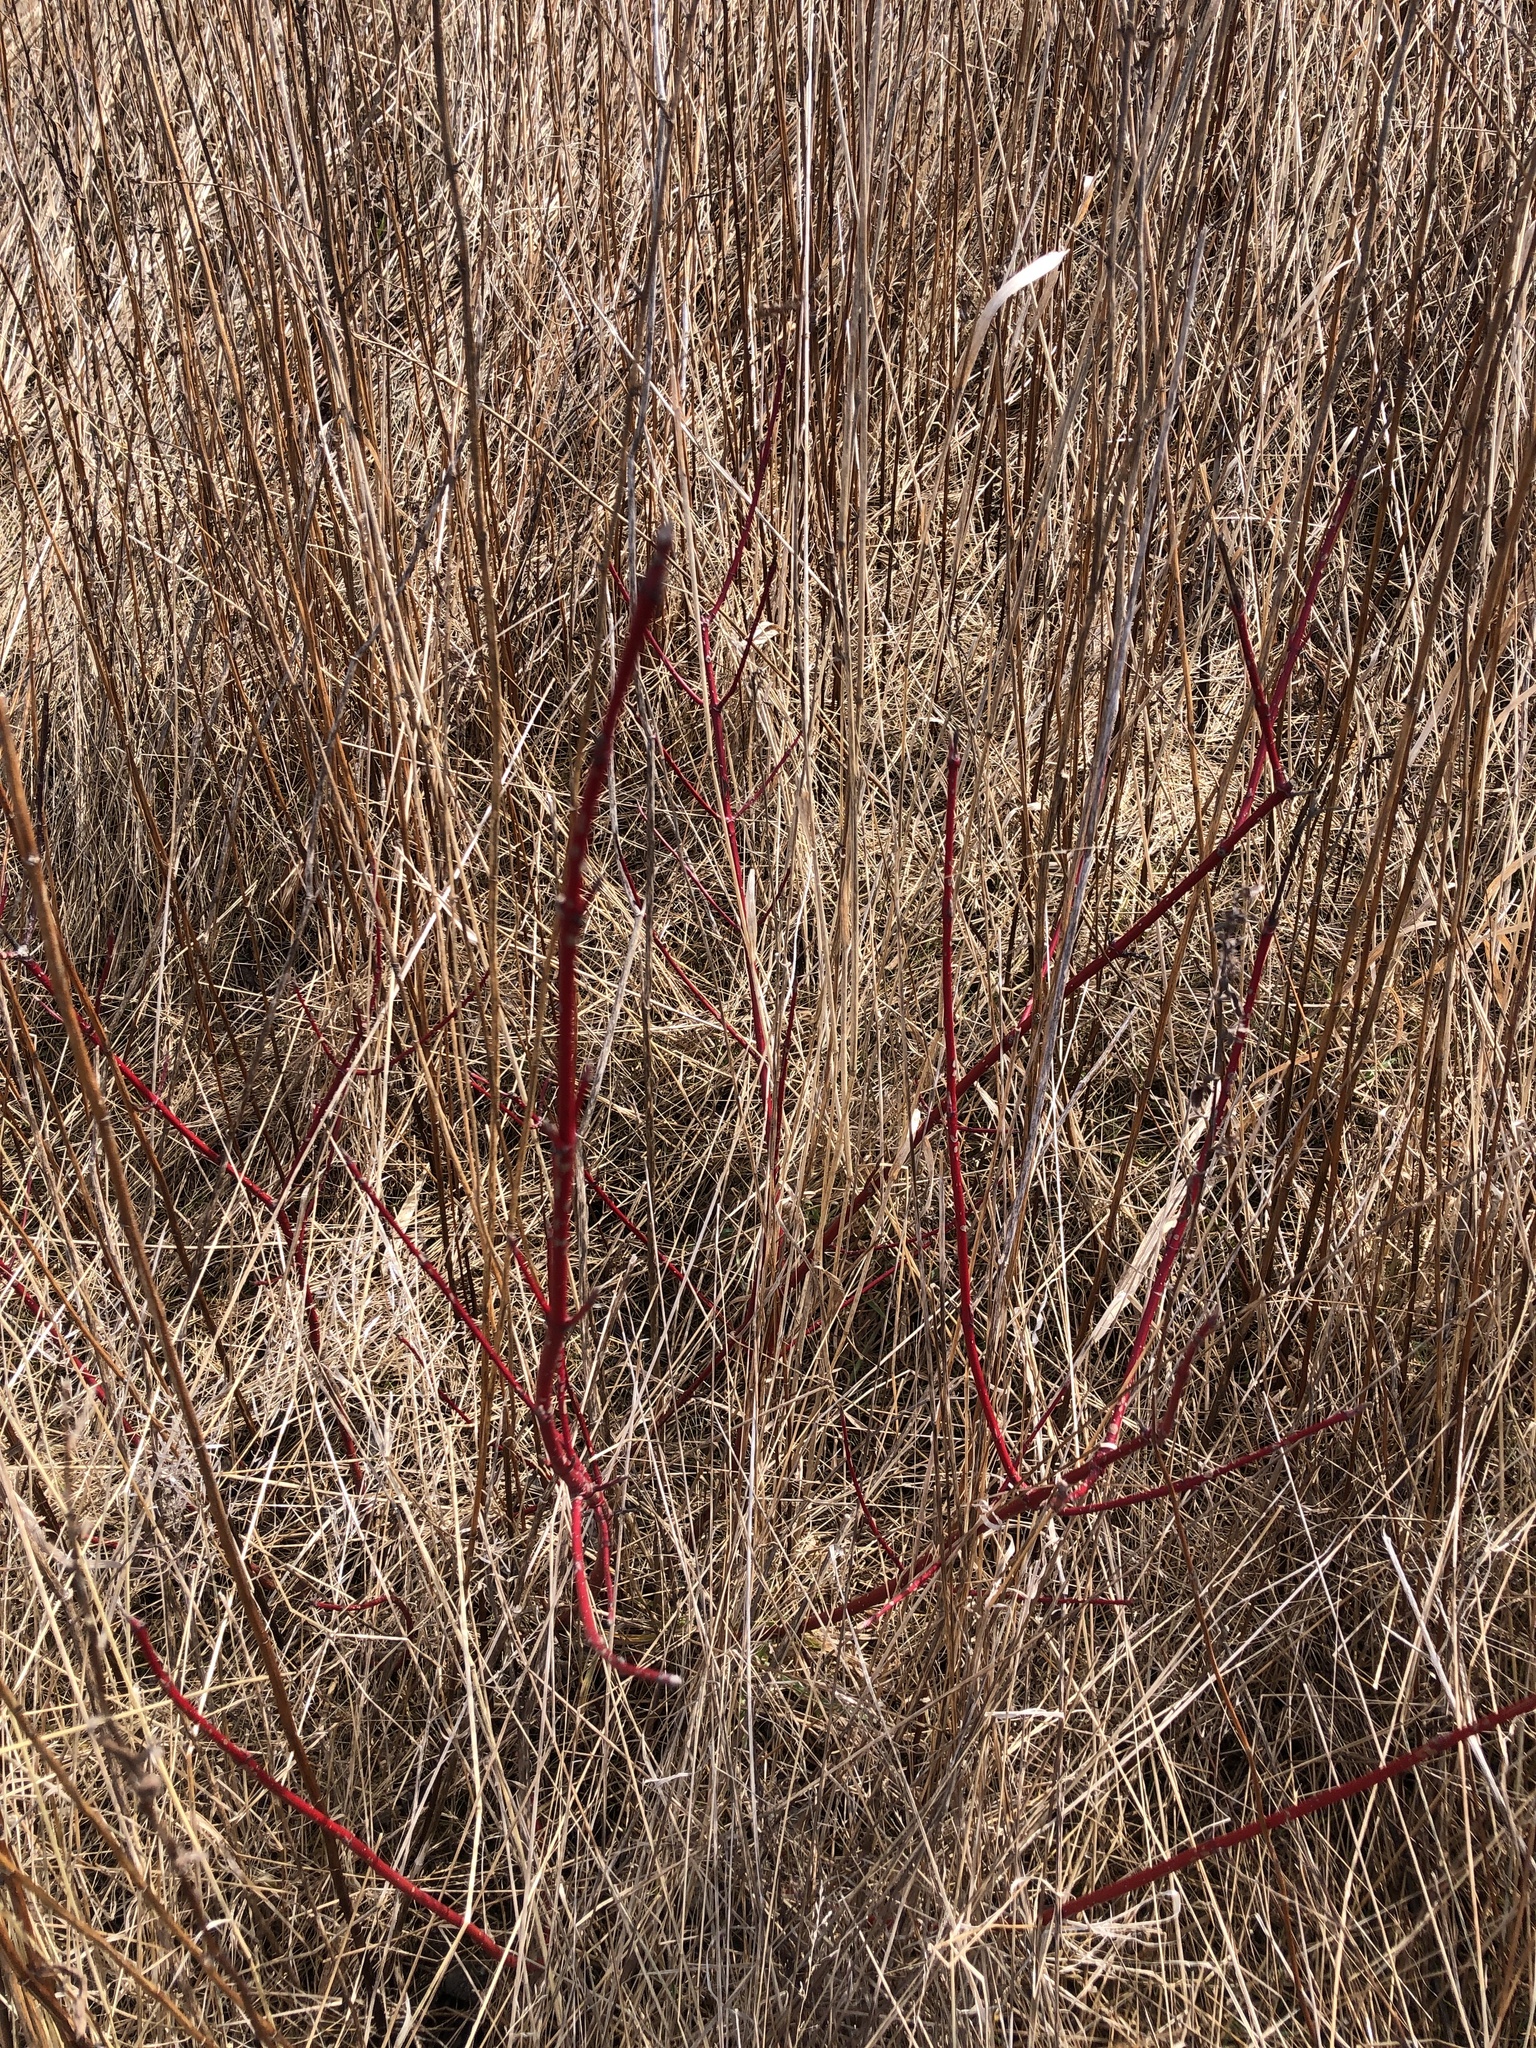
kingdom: Plantae
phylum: Tracheophyta
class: Magnoliopsida
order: Cornales
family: Cornaceae
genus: Cornus
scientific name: Cornus sericea
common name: Red-osier dogwood
